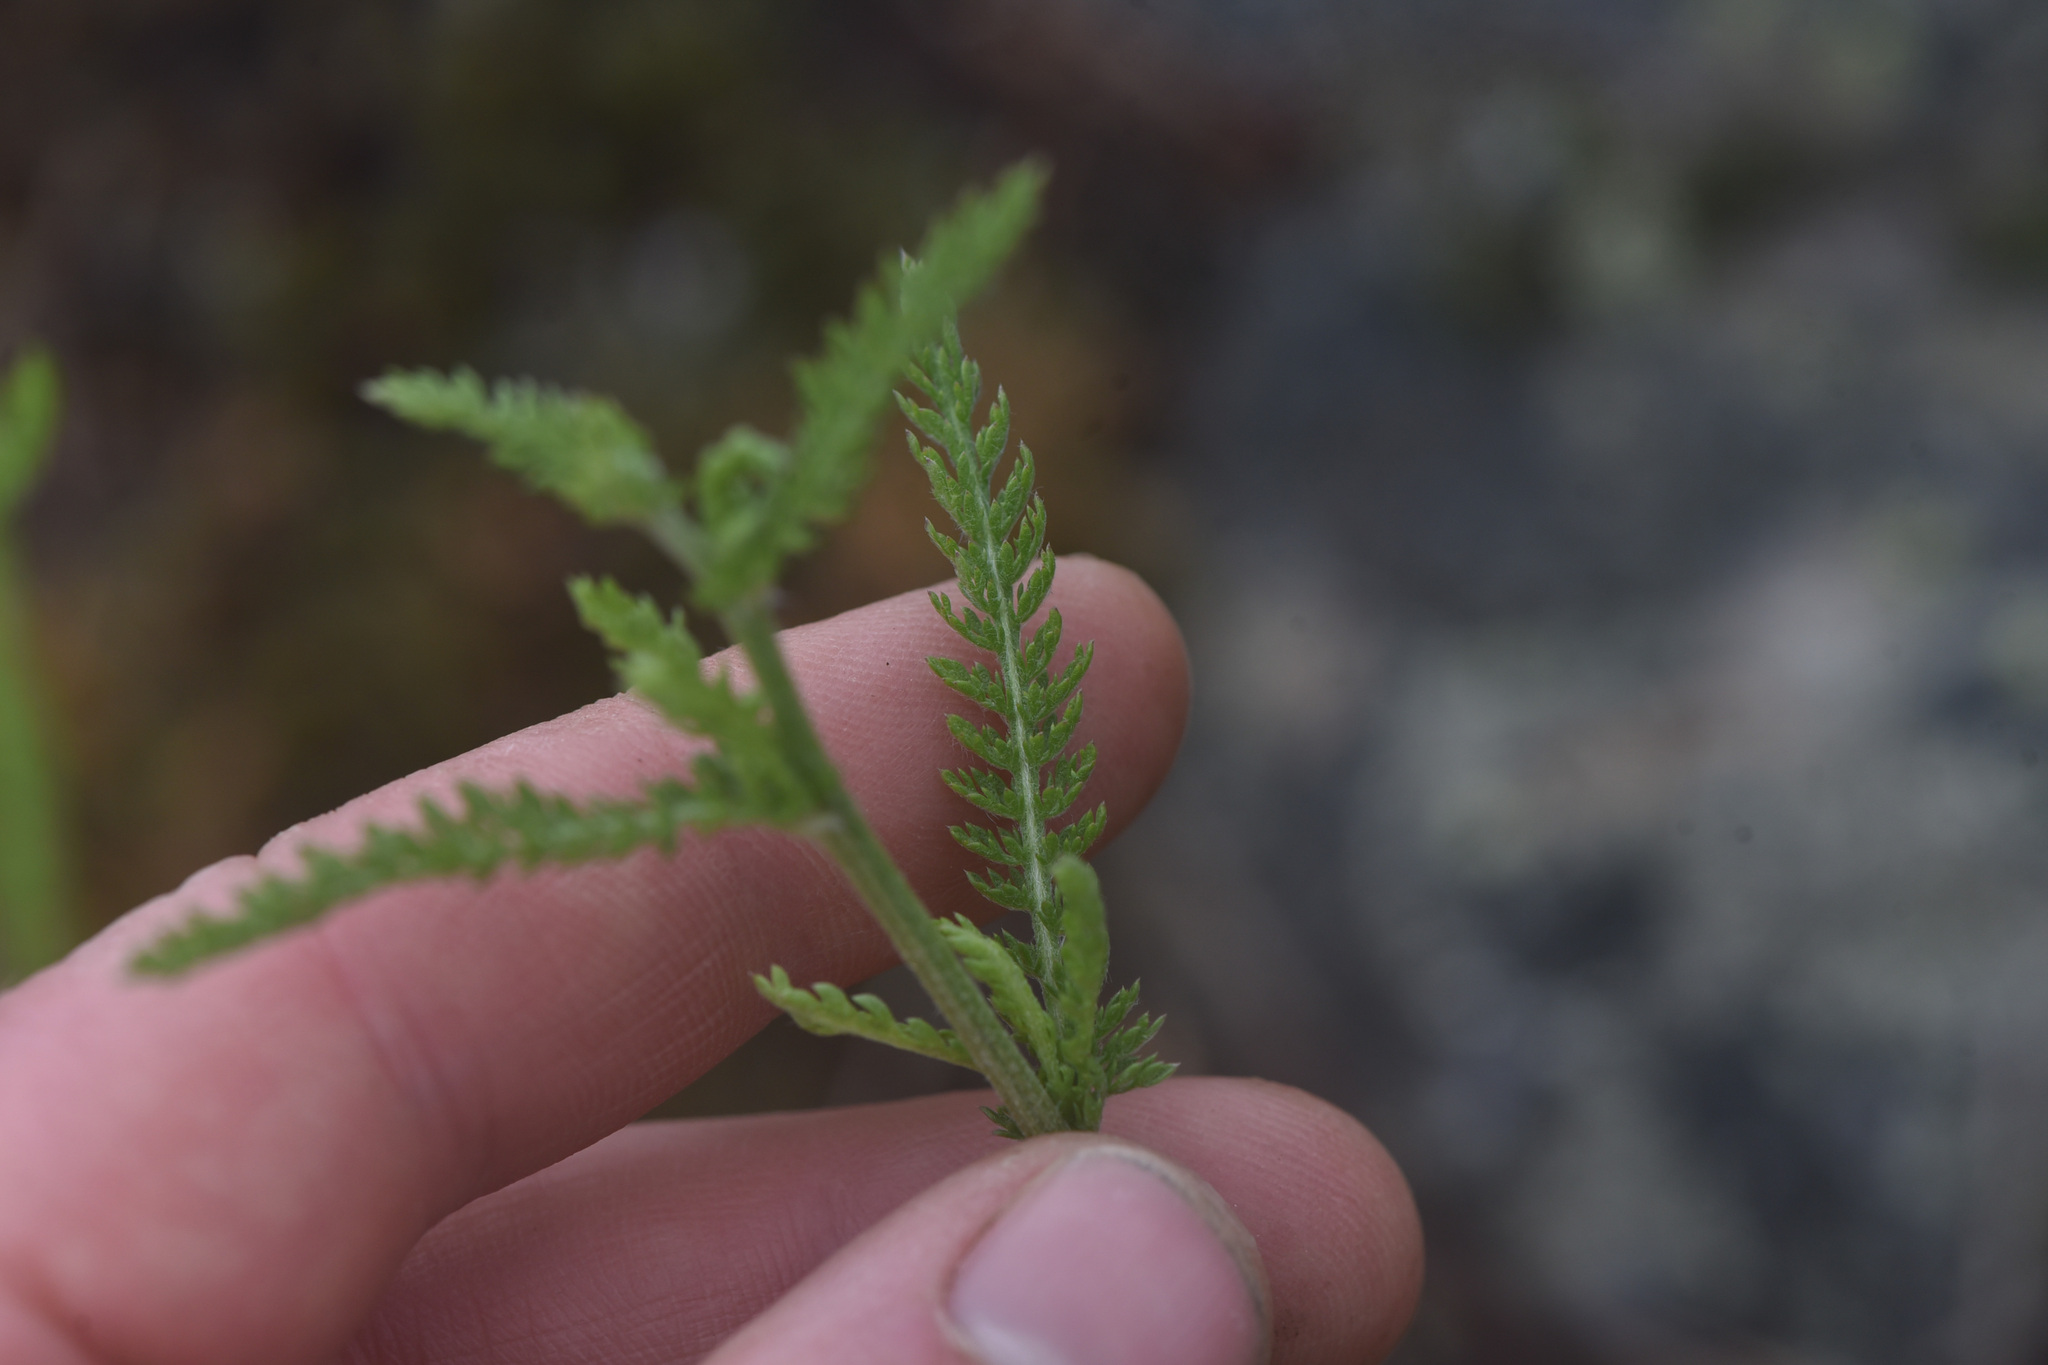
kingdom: Plantae
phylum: Tracheophyta
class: Magnoliopsida
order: Asterales
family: Asteraceae
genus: Achillea
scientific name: Achillea millefolium
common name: Yarrow
